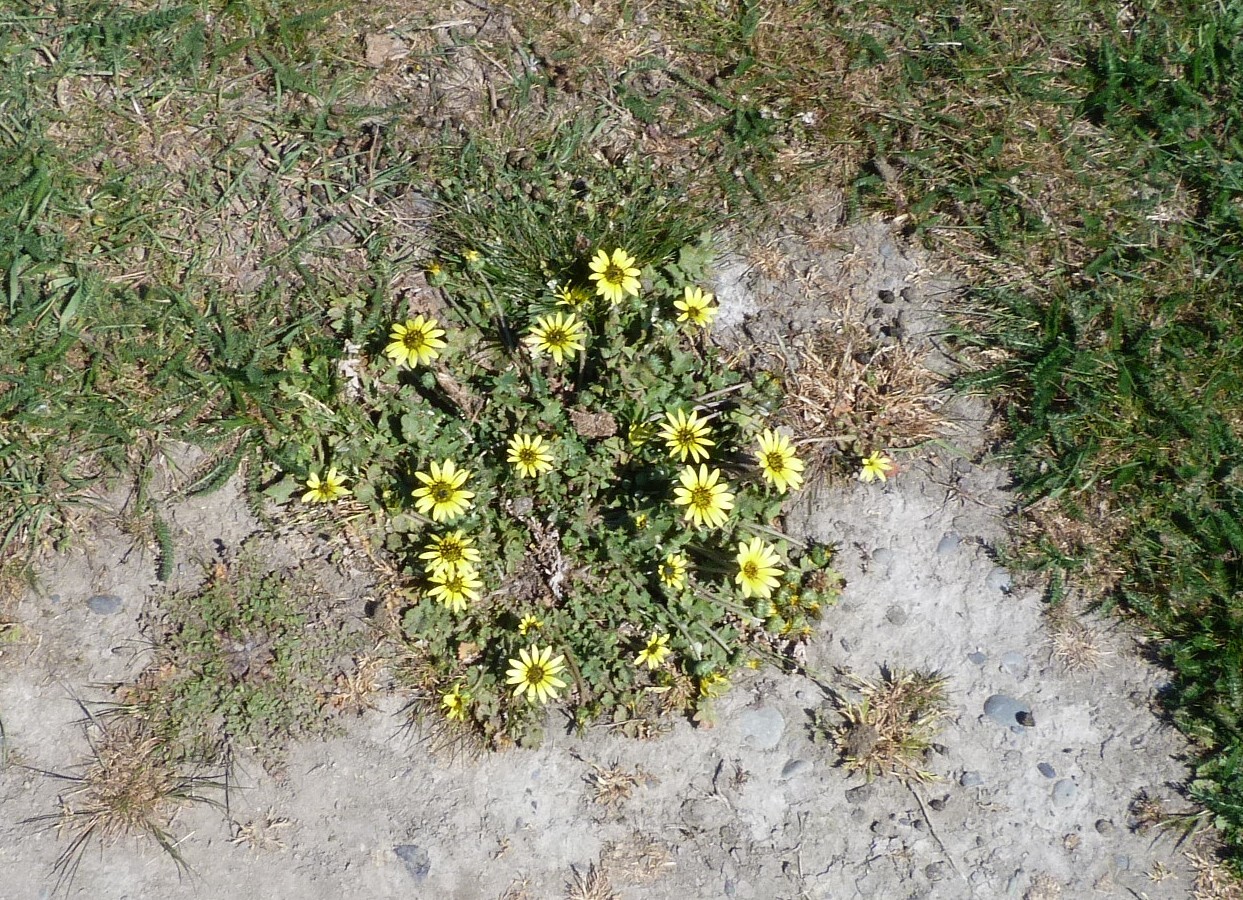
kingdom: Plantae
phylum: Tracheophyta
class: Magnoliopsida
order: Asterales
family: Asteraceae
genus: Arctotheca
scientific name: Arctotheca calendula
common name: Capeweed
